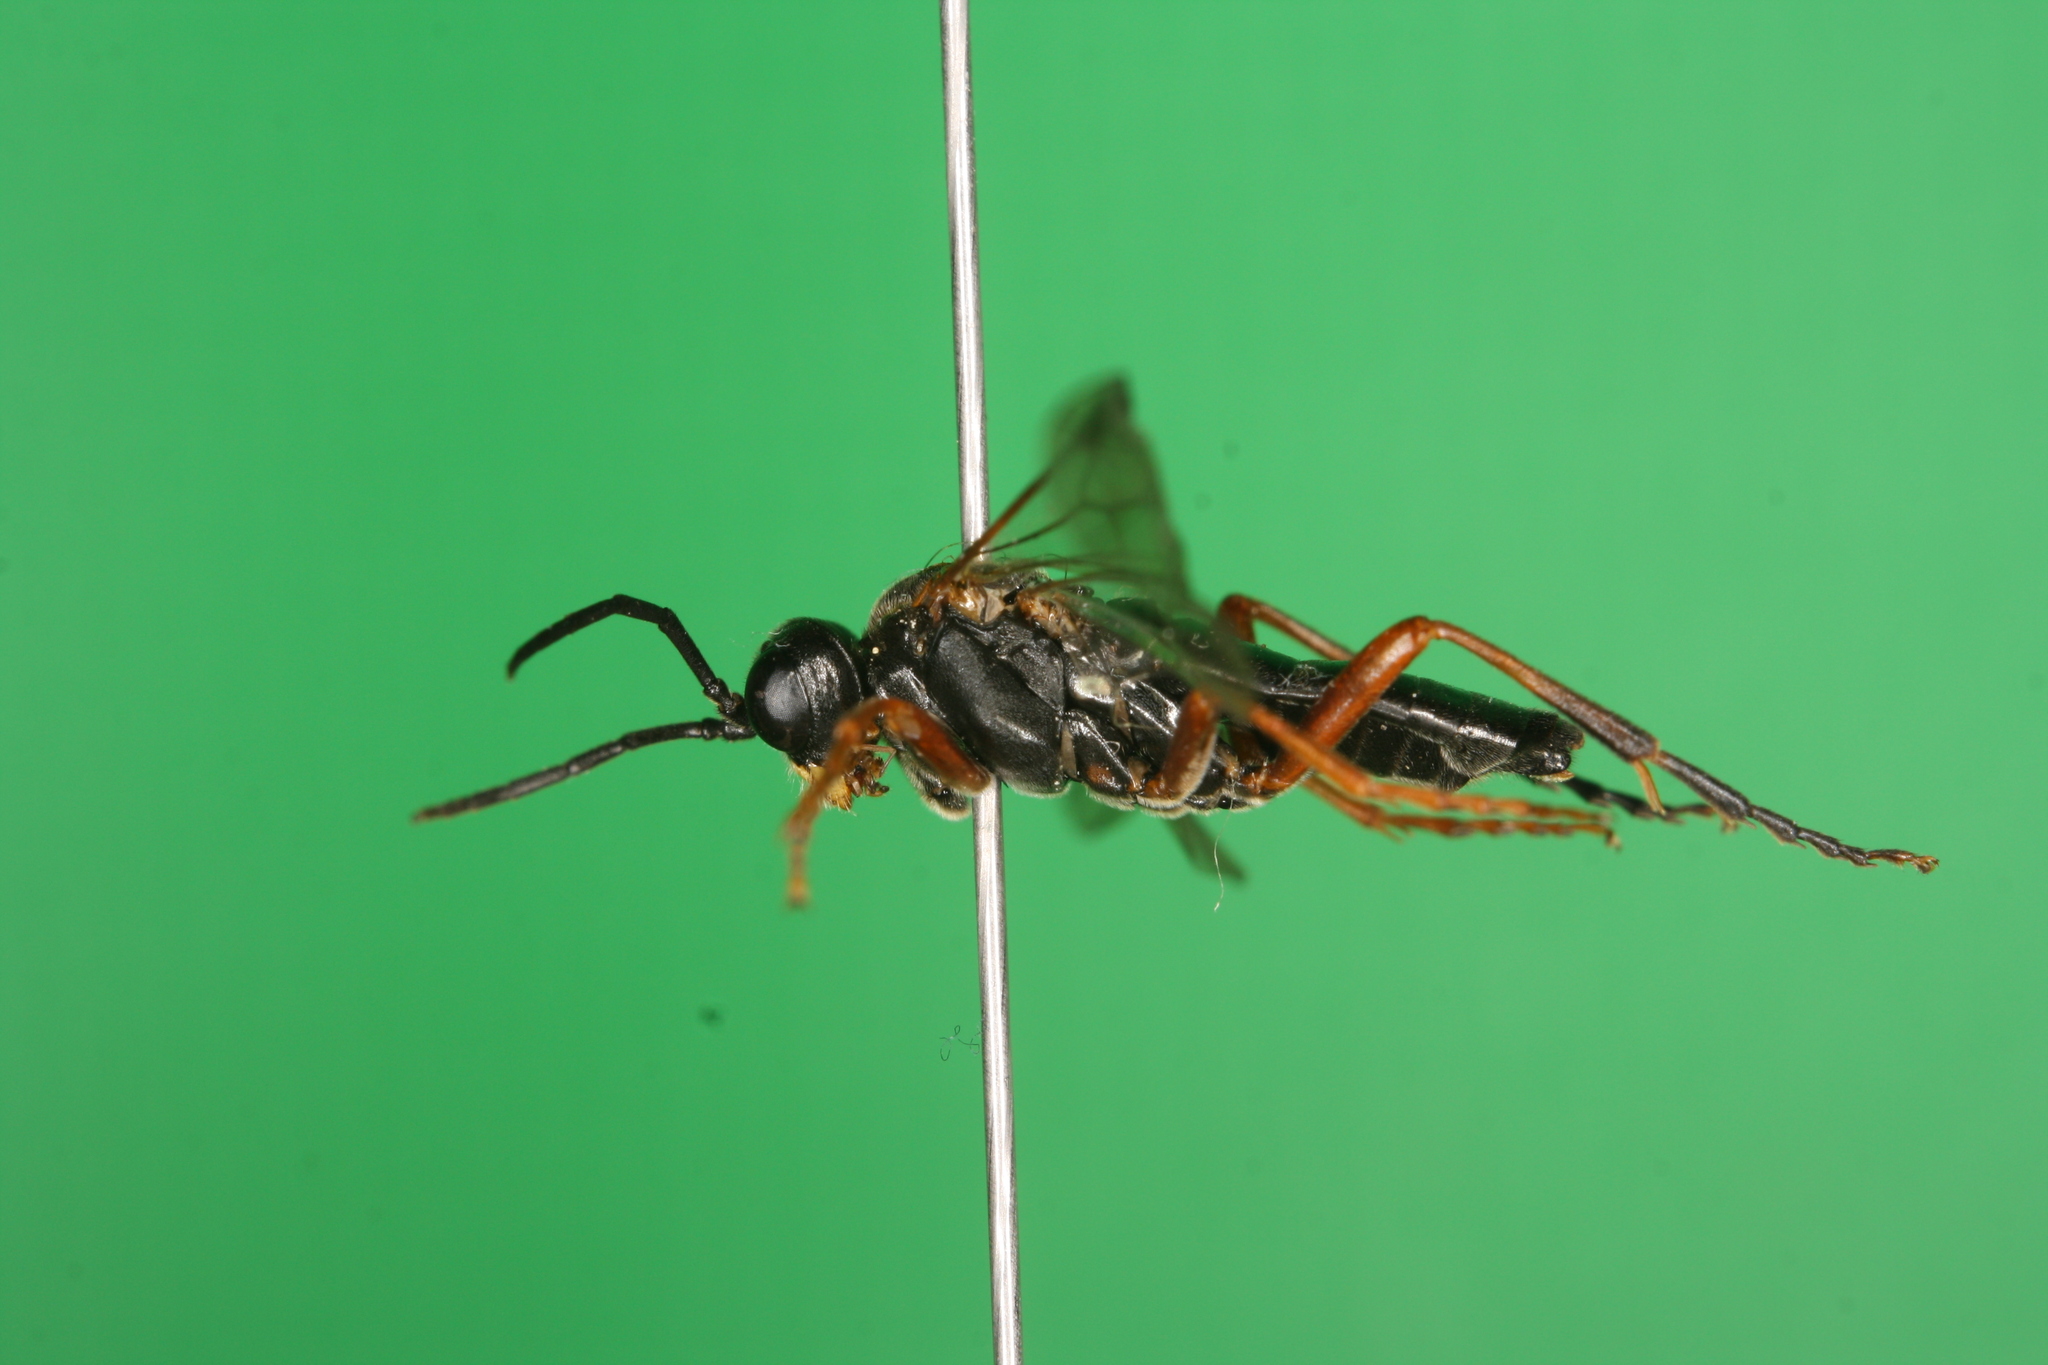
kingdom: Animalia
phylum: Arthropoda
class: Insecta
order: Hymenoptera
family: Tenthredinidae
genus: Tenthredo
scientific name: Tenthredo atra
